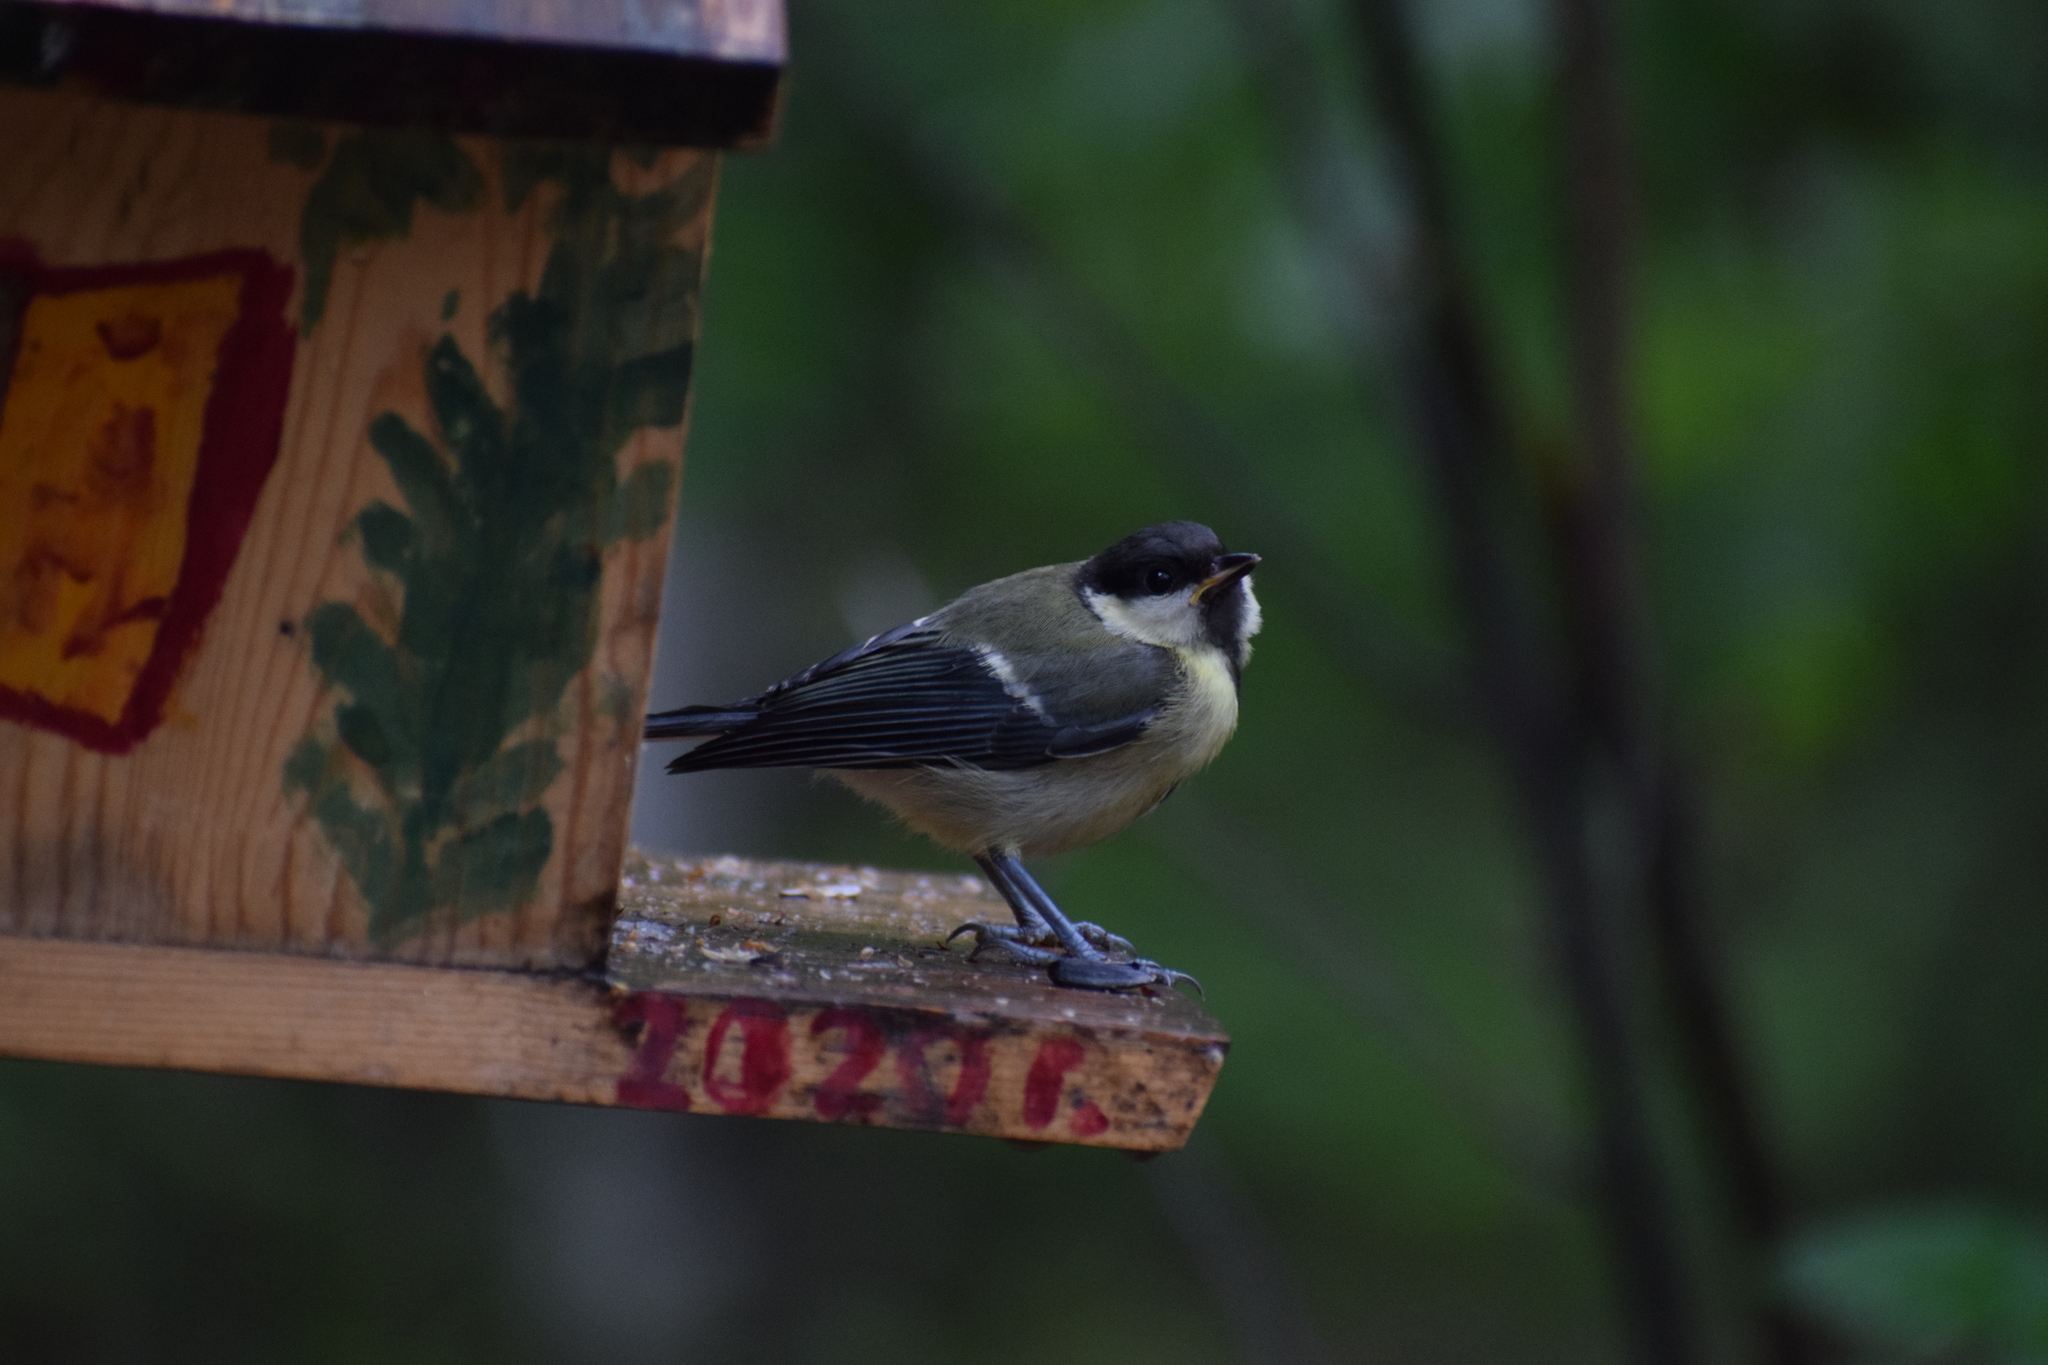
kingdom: Animalia
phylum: Chordata
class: Aves
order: Passeriformes
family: Paridae
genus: Parus
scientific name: Parus major
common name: Great tit
